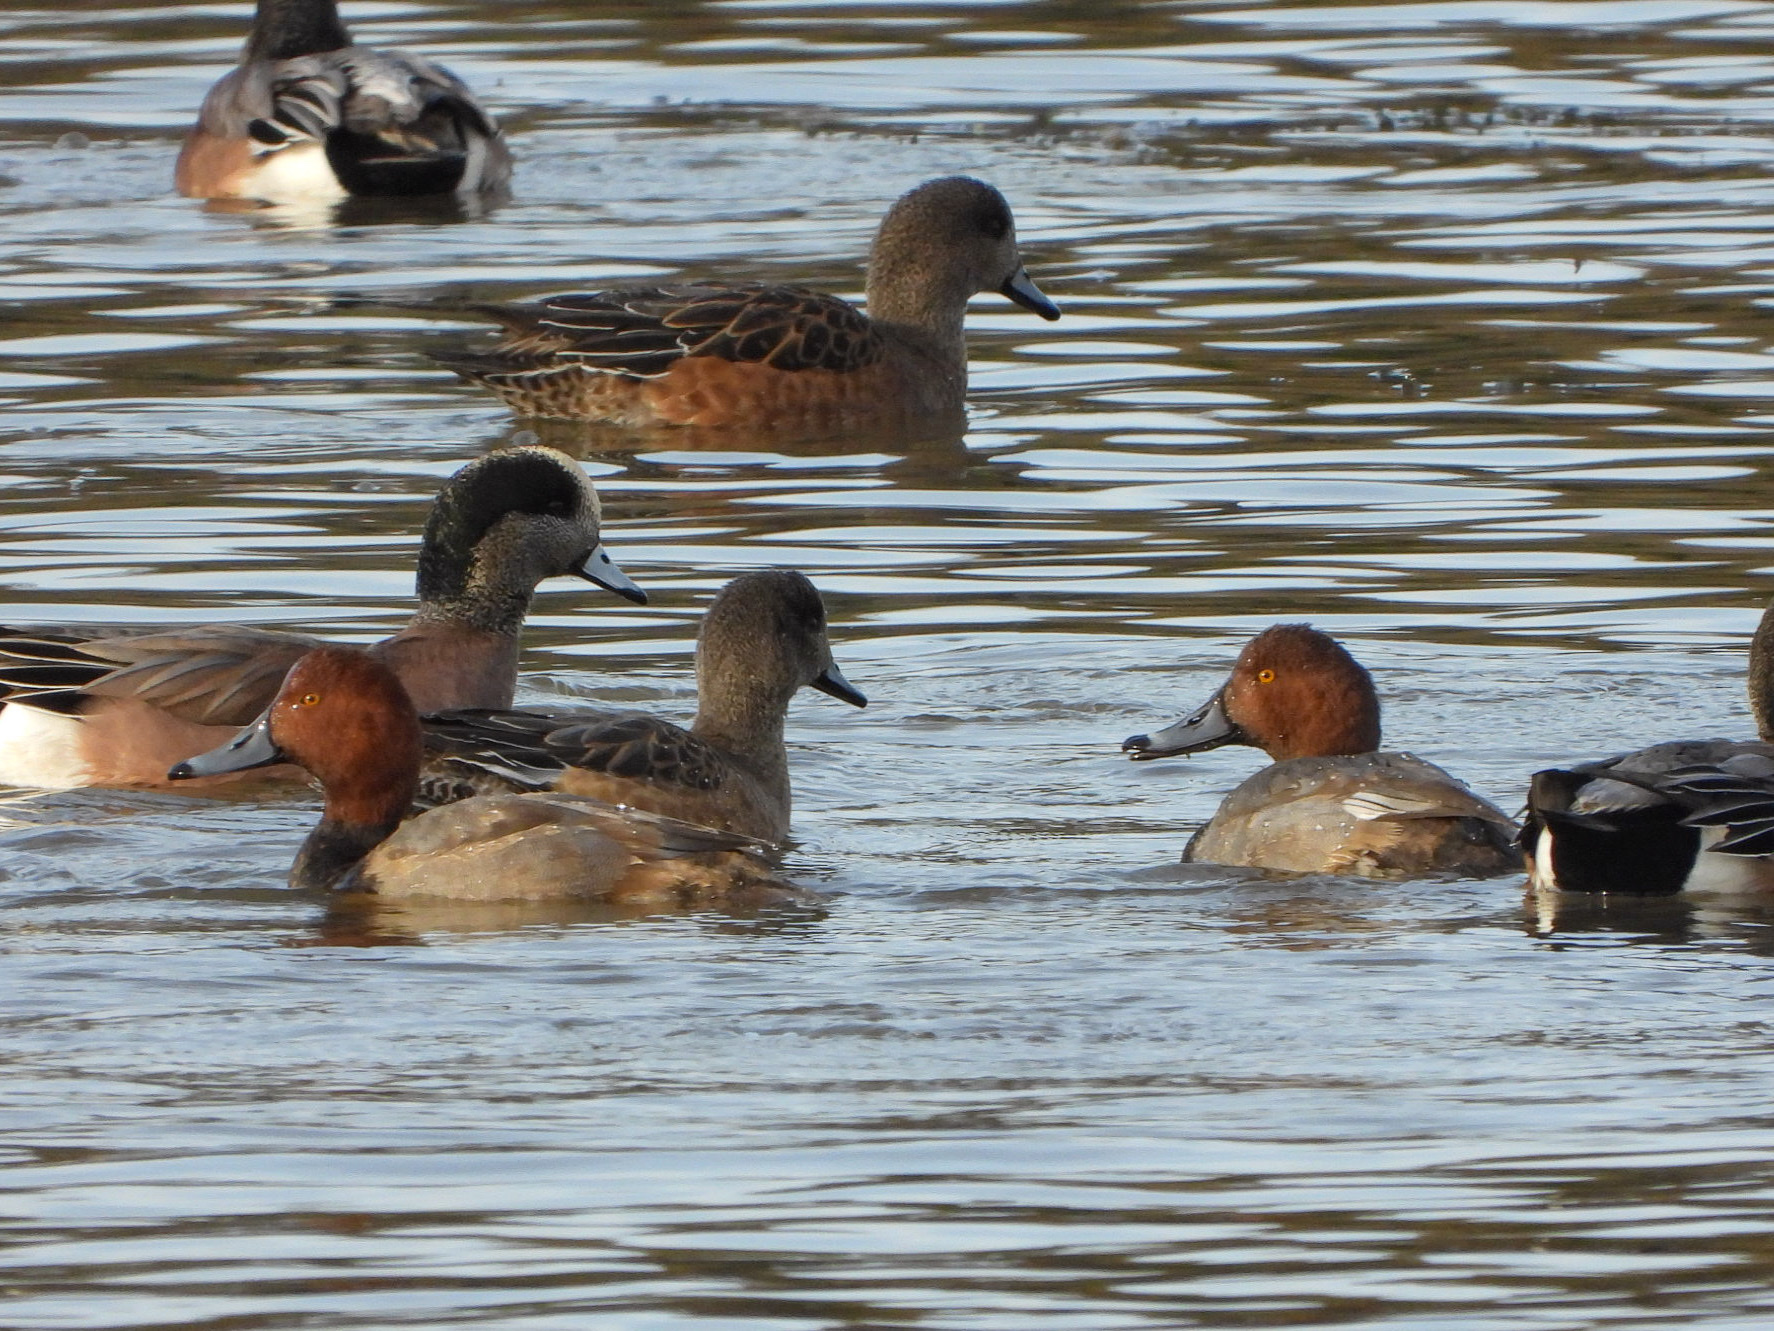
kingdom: Animalia
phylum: Chordata
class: Aves
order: Anseriformes
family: Anatidae
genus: Aythya
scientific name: Aythya americana
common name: Redhead
